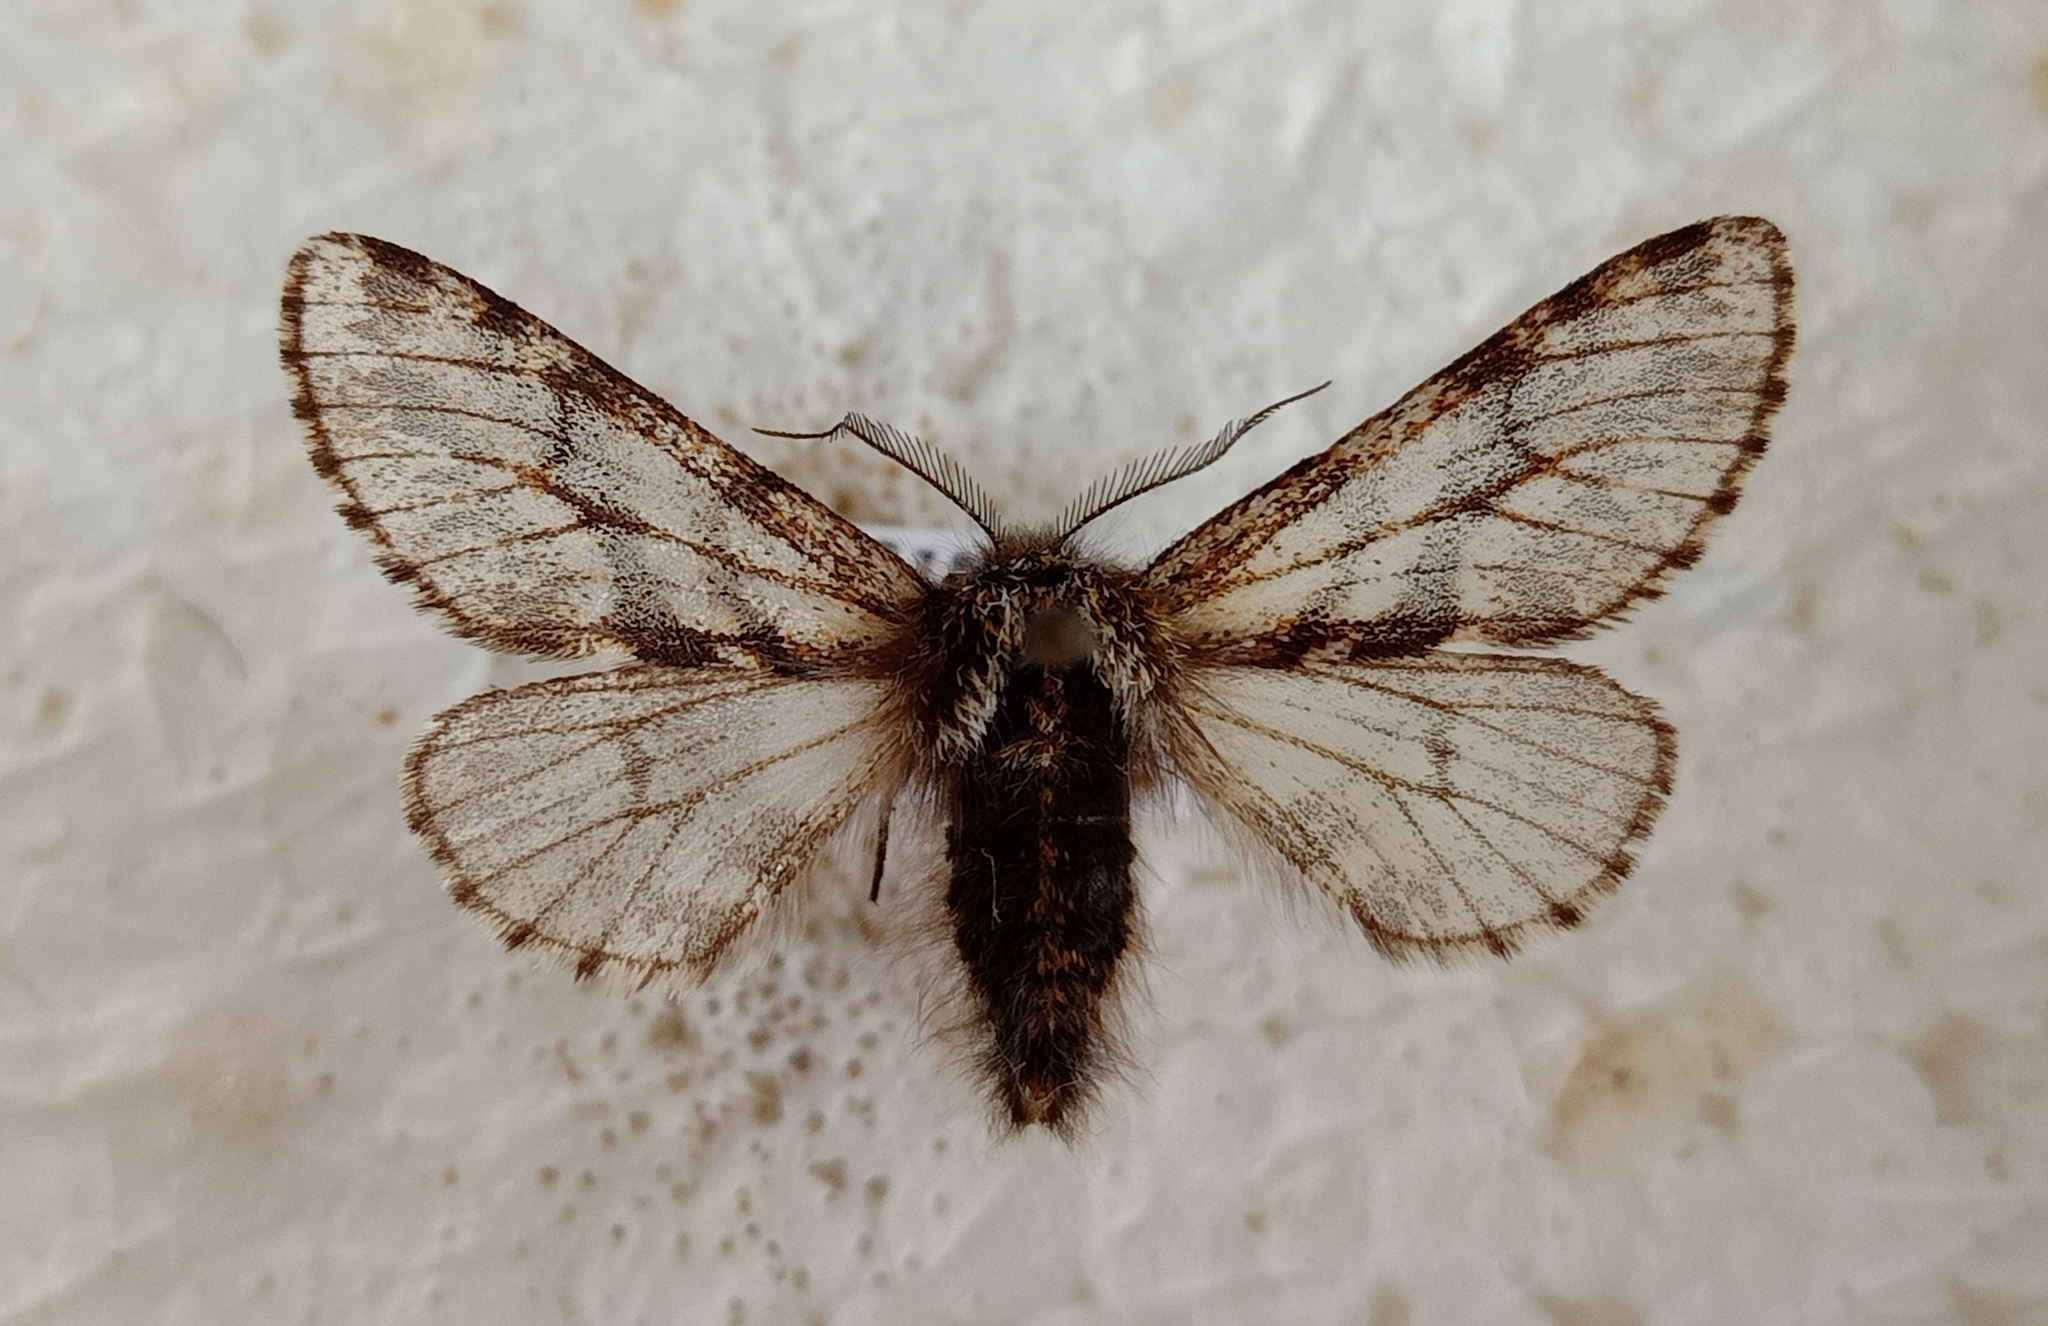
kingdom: Animalia
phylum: Arthropoda
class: Insecta
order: Lepidoptera
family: Geometridae
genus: Lycia
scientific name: Lycia pomonaria
